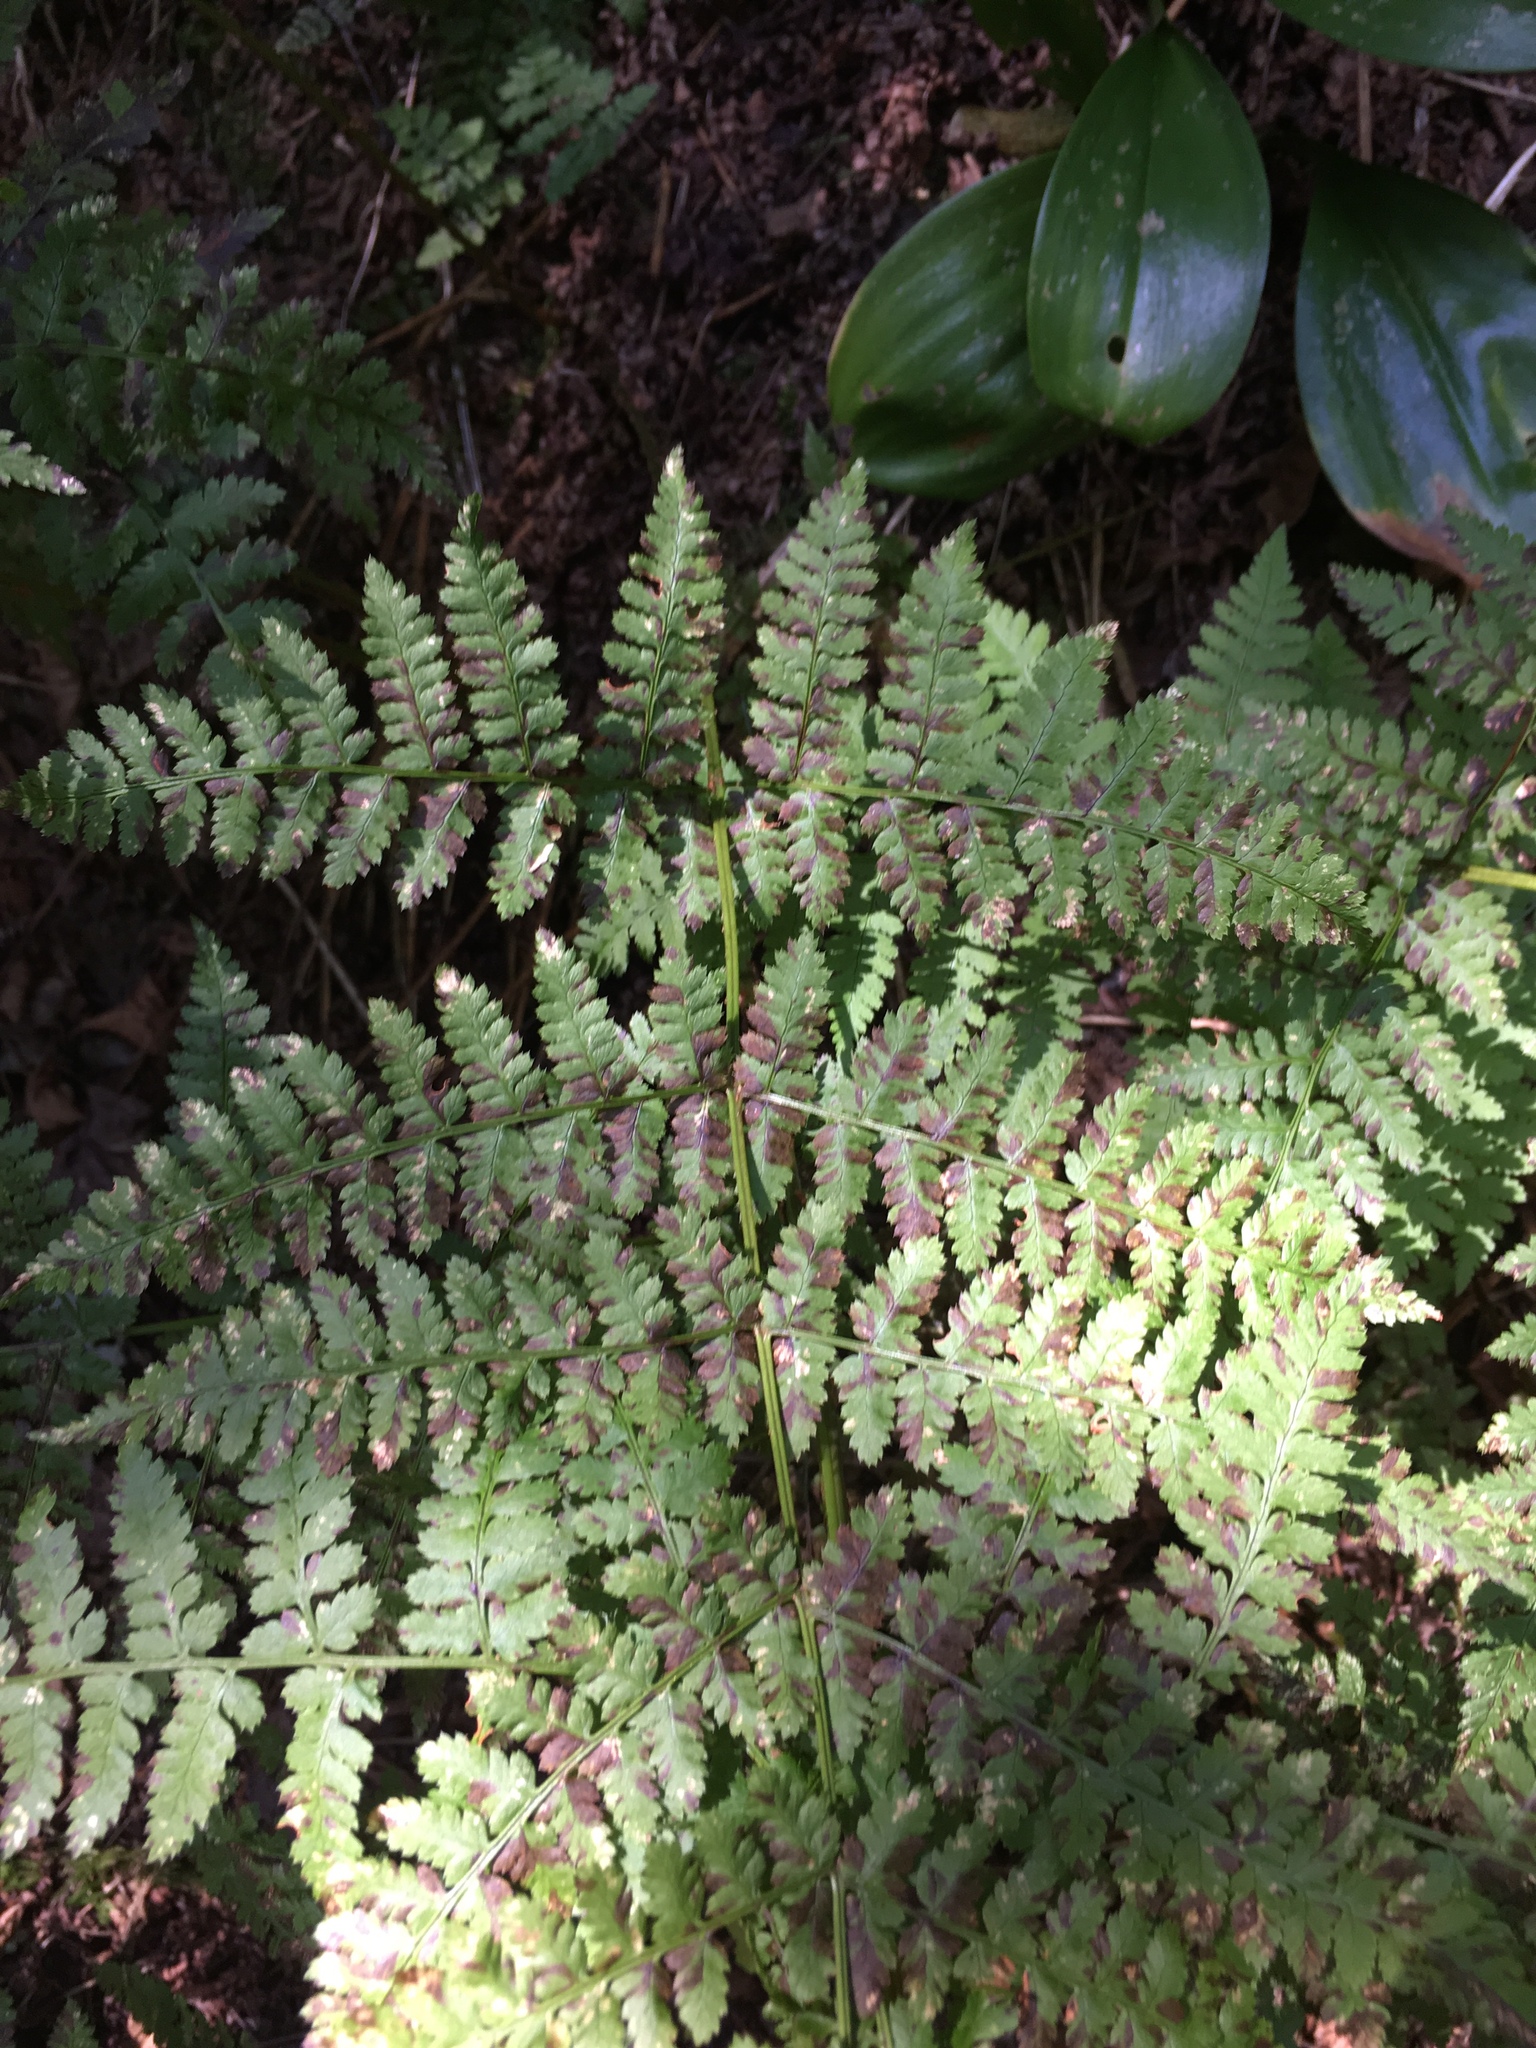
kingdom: Plantae
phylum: Tracheophyta
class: Polypodiopsida
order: Polypodiales
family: Dryopteridaceae
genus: Dryopteris
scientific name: Dryopteris campyloptera
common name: Mountain wood fern
